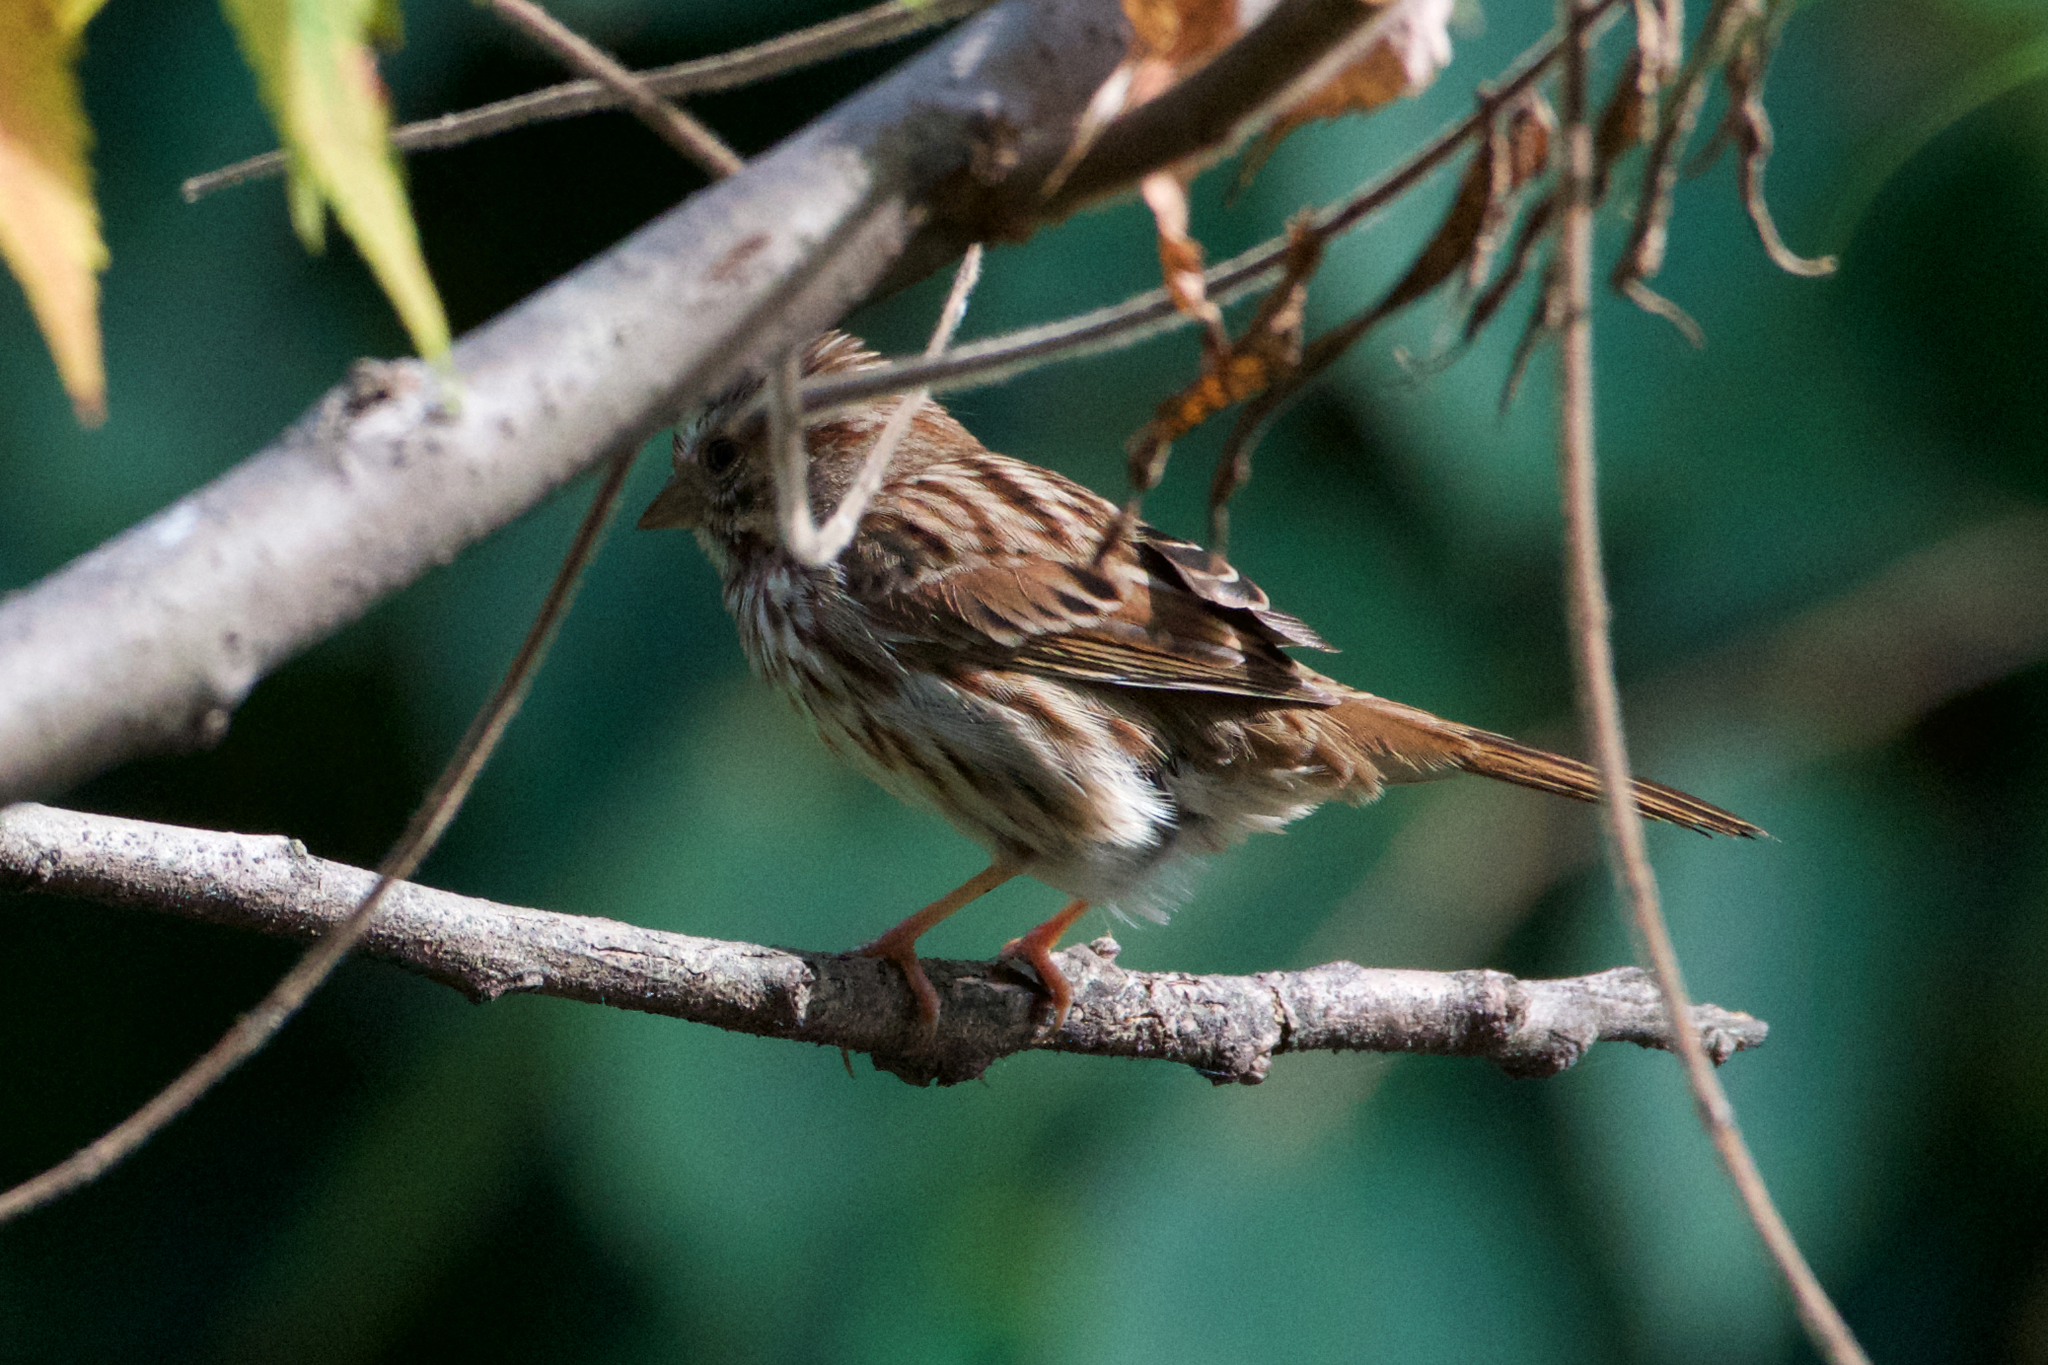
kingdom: Animalia
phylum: Chordata
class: Aves
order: Passeriformes
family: Passerellidae
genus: Melospiza
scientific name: Melospiza melodia
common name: Song sparrow
